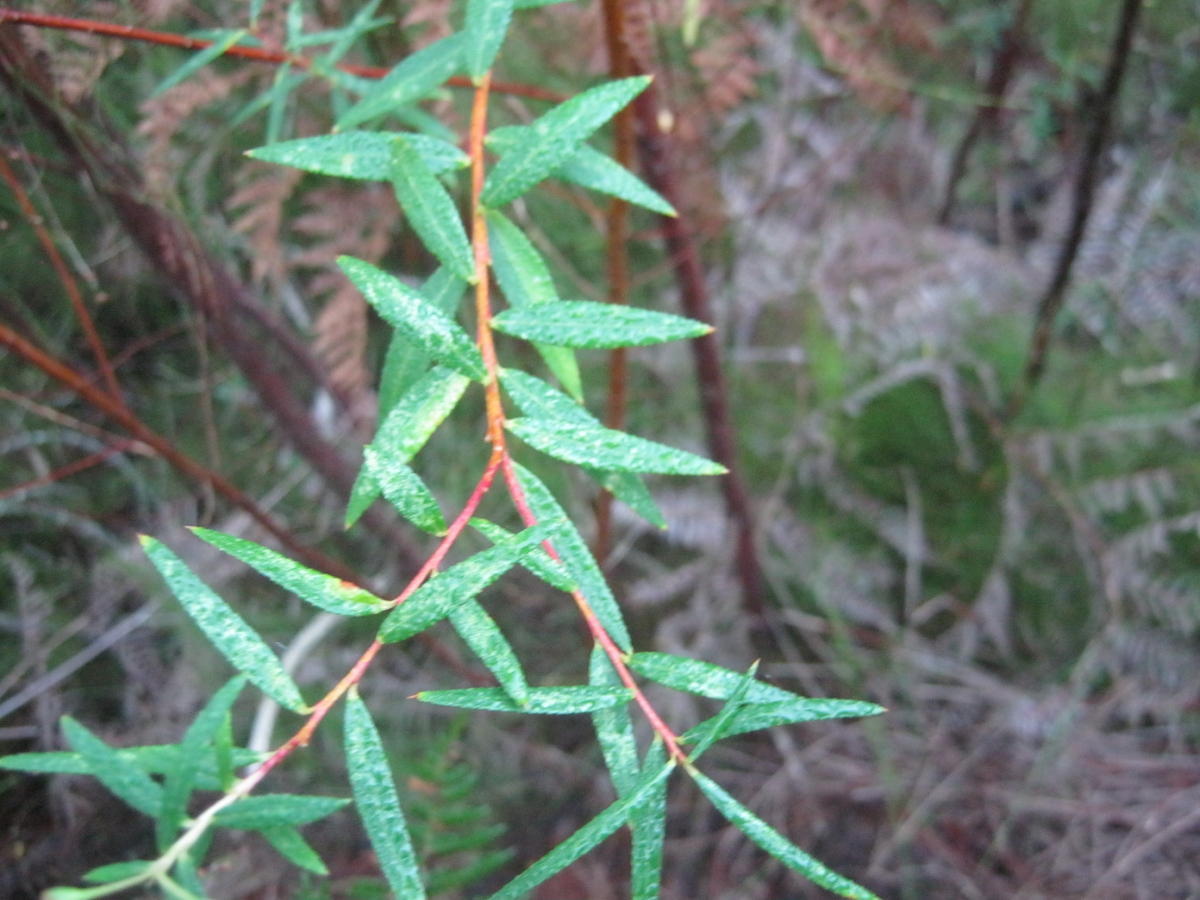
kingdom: Plantae
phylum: Tracheophyta
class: Magnoliopsida
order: Sapindales
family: Rutaceae
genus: Empleurum
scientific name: Empleurum unicapsulare
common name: False buchu
